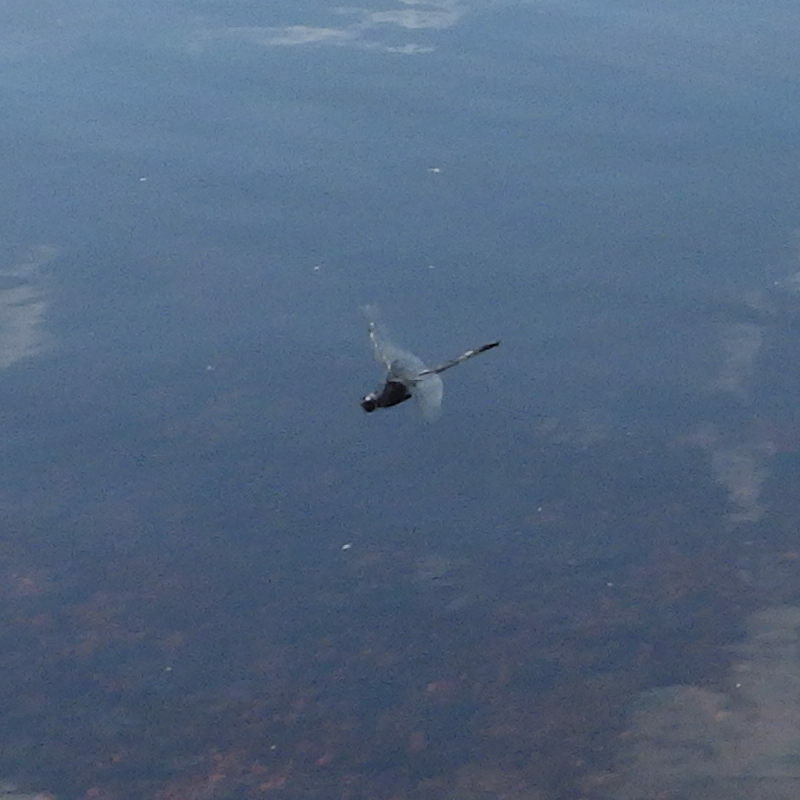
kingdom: Animalia
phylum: Arthropoda
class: Insecta
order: Odonata
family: Libellulidae
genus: Libellula
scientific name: Libellula incesta
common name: Slaty skimmer
